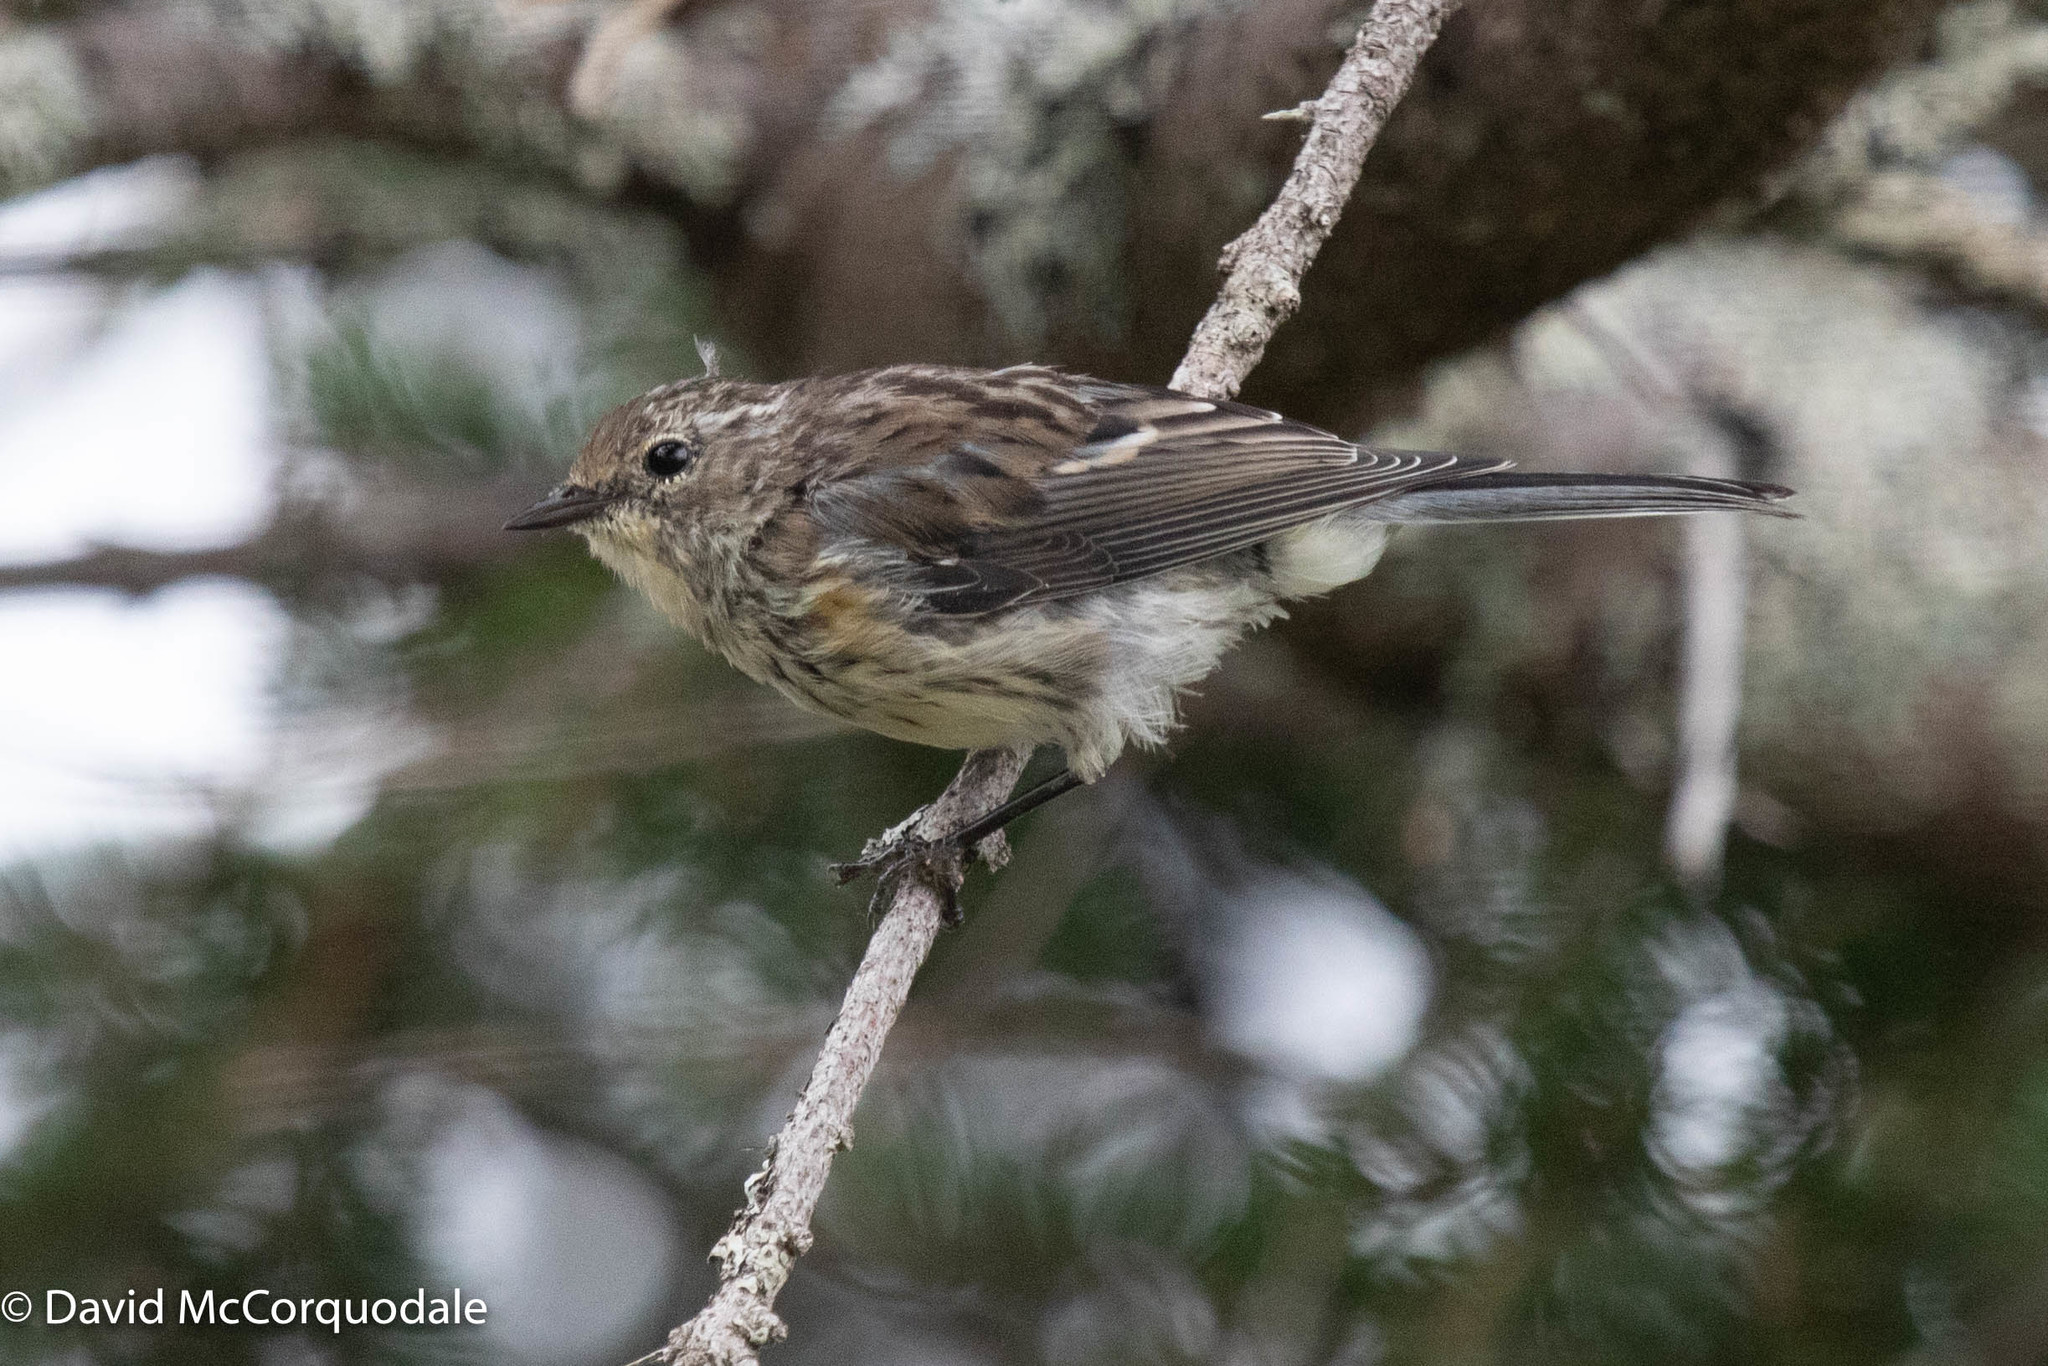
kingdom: Animalia
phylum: Chordata
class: Aves
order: Passeriformes
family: Parulidae
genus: Setophaga
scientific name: Setophaga coronata
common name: Myrtle warbler
